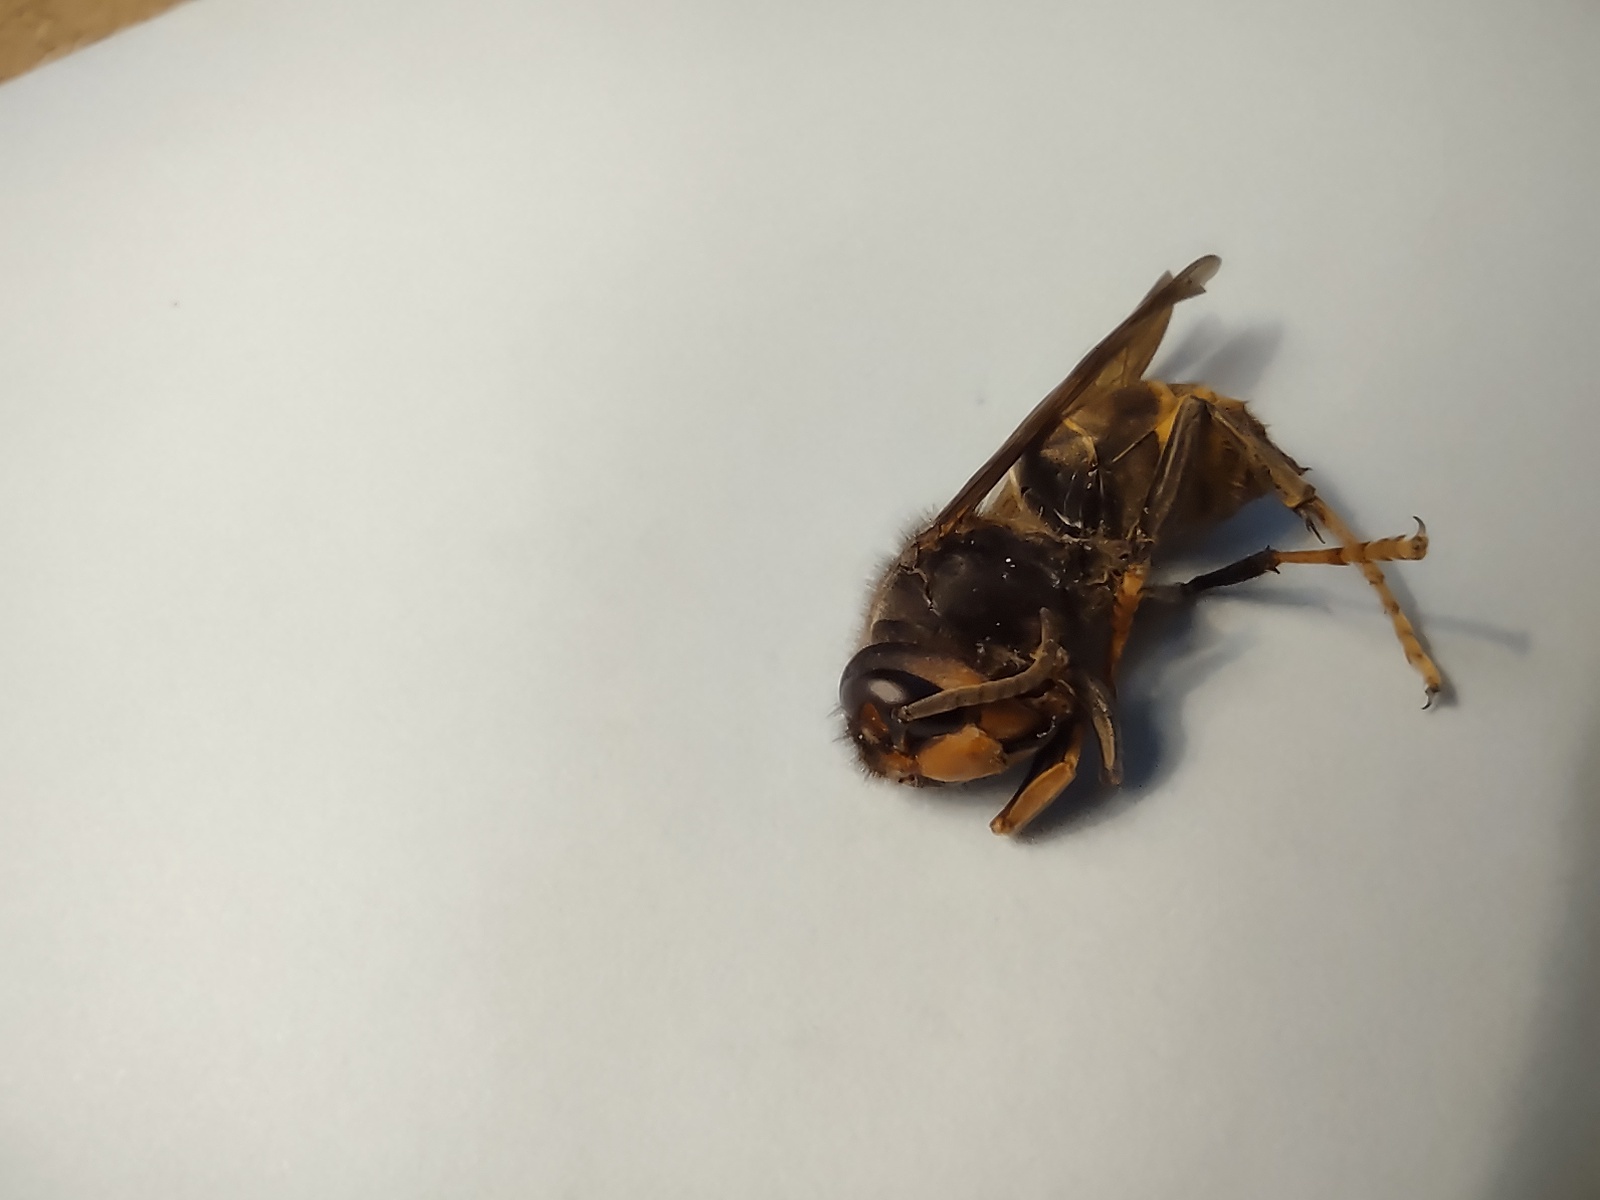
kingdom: Animalia
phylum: Arthropoda
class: Insecta
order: Hymenoptera
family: Vespidae
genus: Vespa
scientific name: Vespa velutina
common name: Asian hornet
